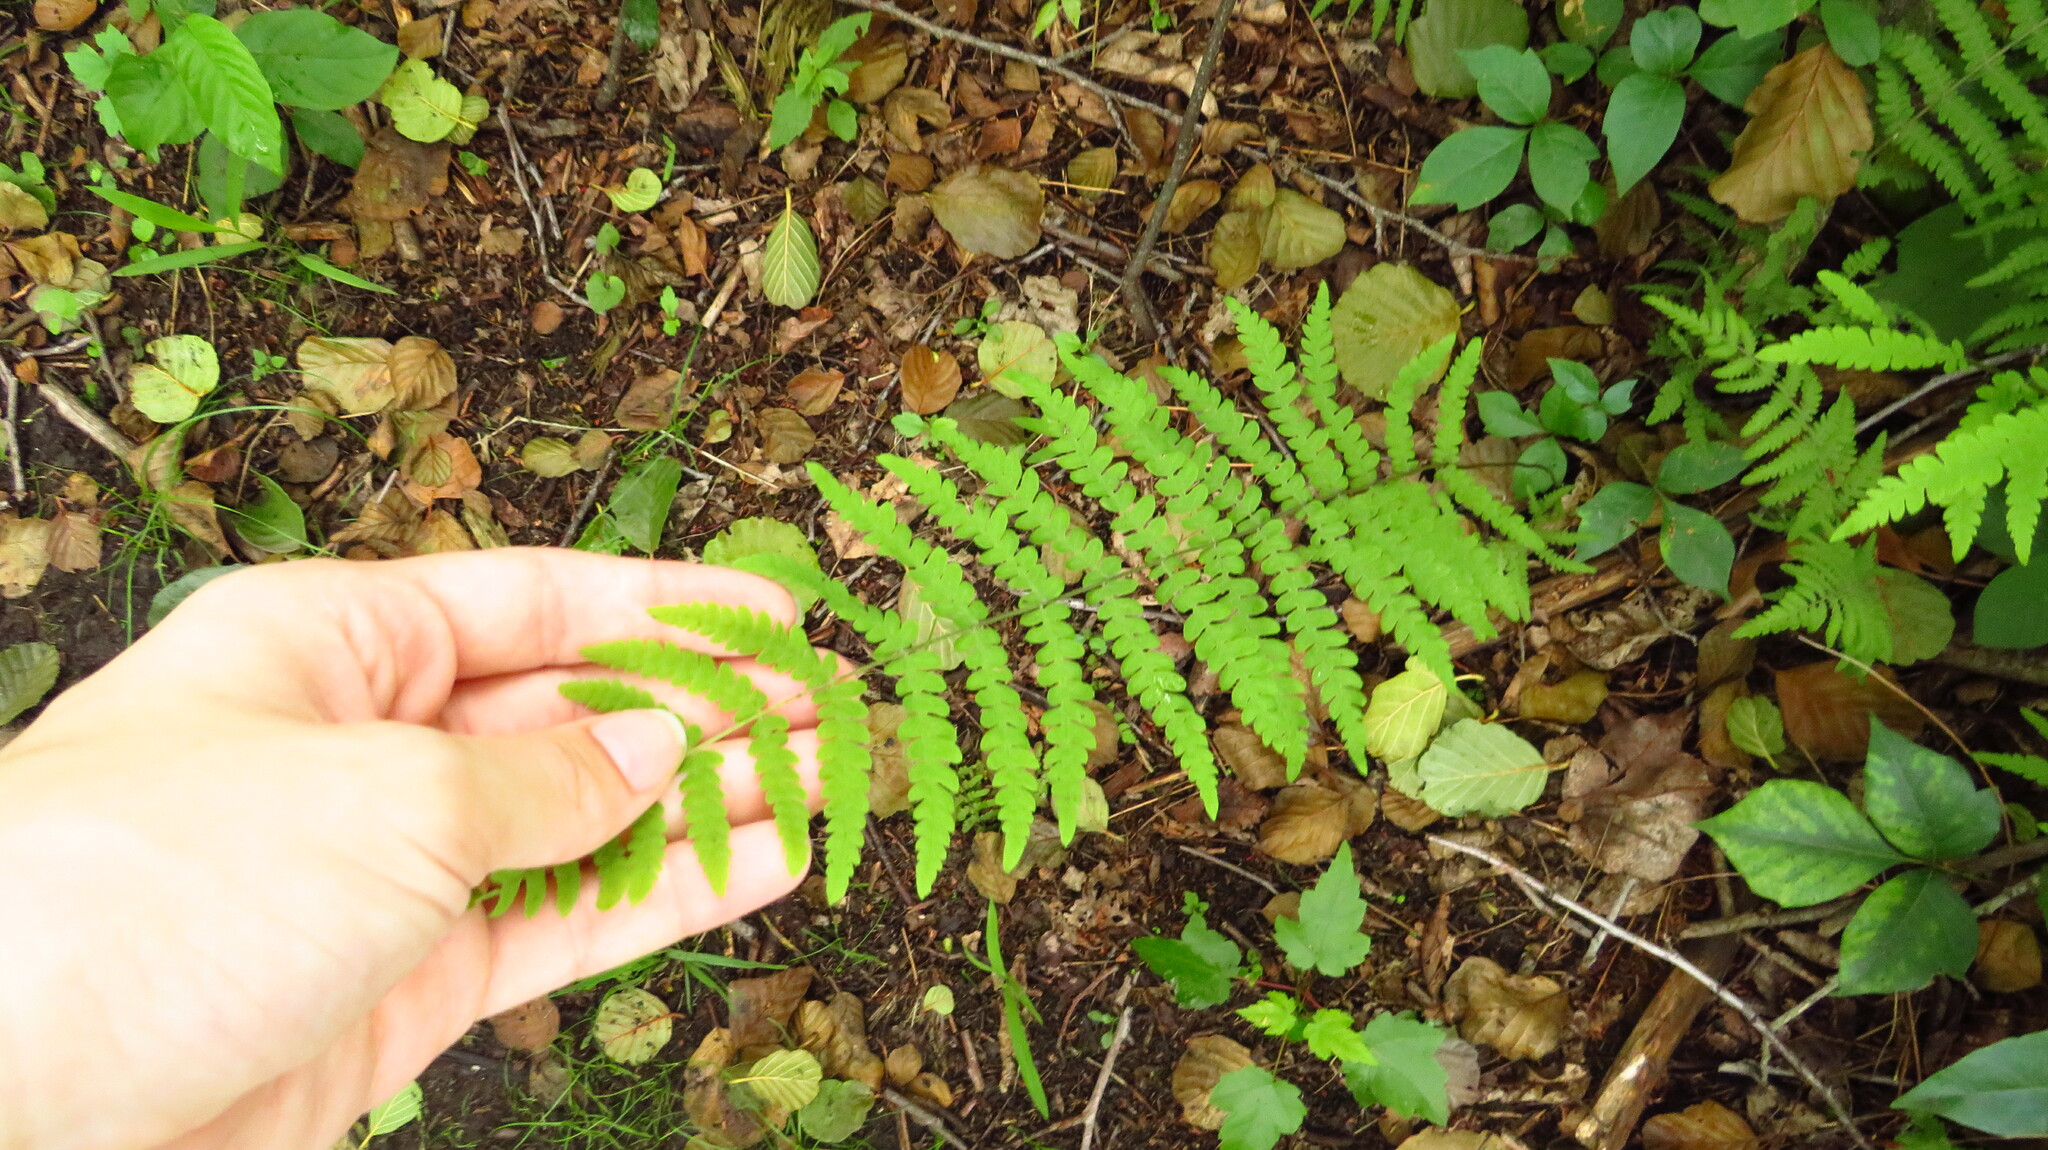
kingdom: Plantae
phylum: Tracheophyta
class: Polypodiopsida
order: Polypodiales
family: Thelypteridaceae
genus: Thelypteris
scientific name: Thelypteris palustris
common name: Marsh fern
